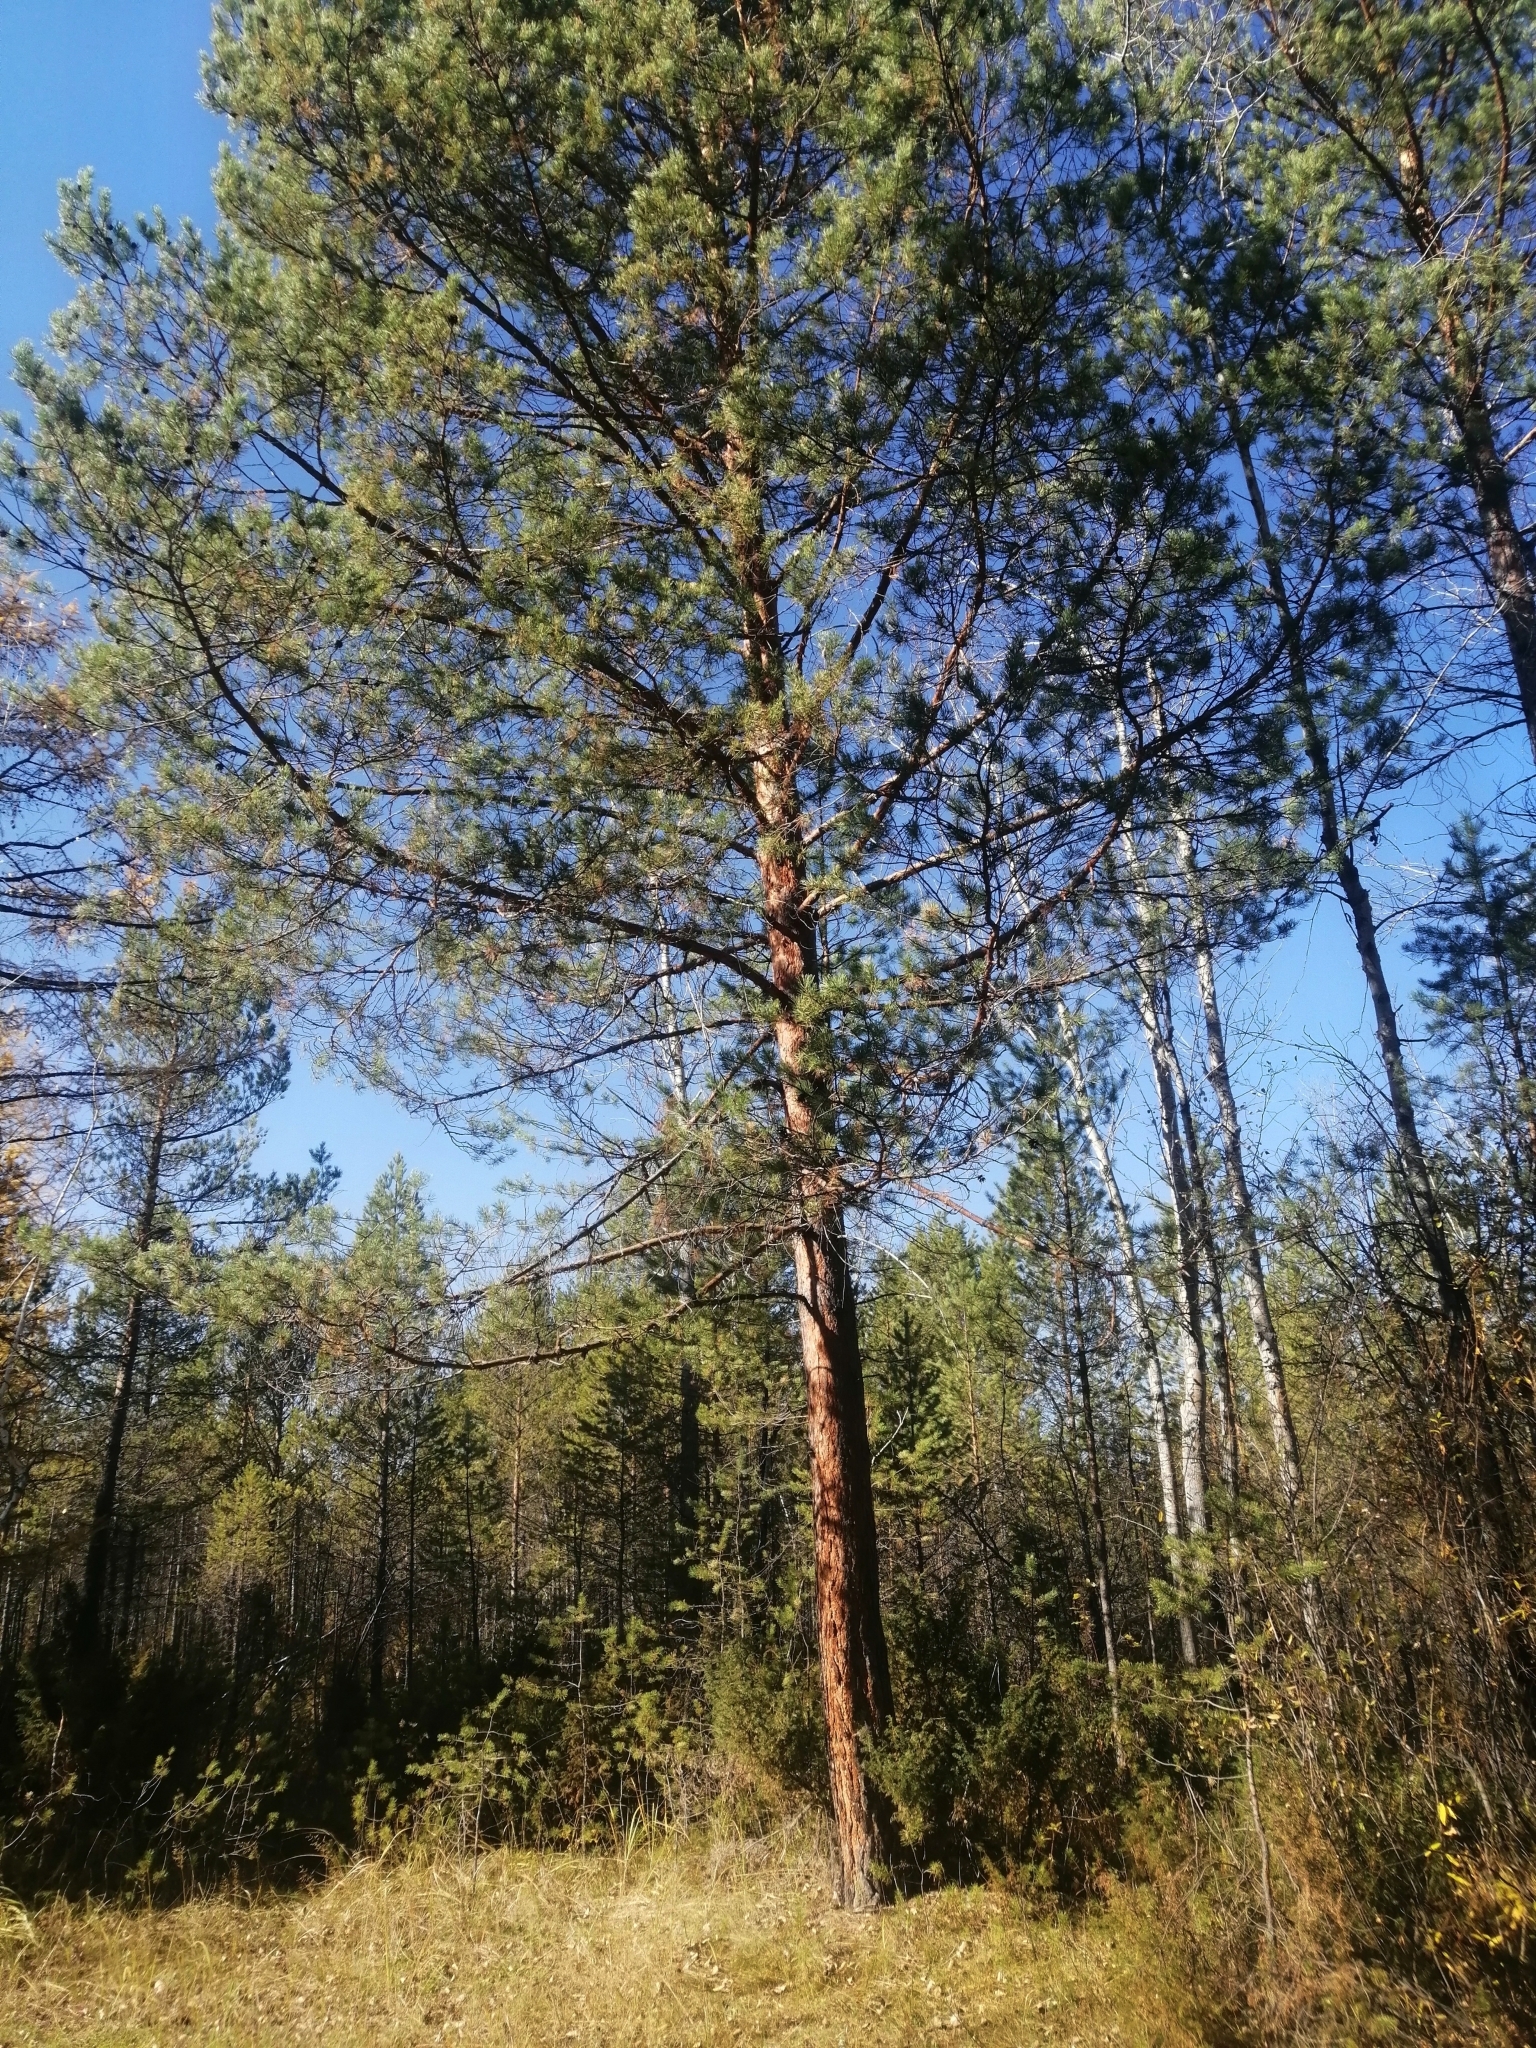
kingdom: Plantae
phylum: Tracheophyta
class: Pinopsida
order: Pinales
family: Pinaceae
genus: Pinus
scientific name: Pinus sylvestris
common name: Scots pine
